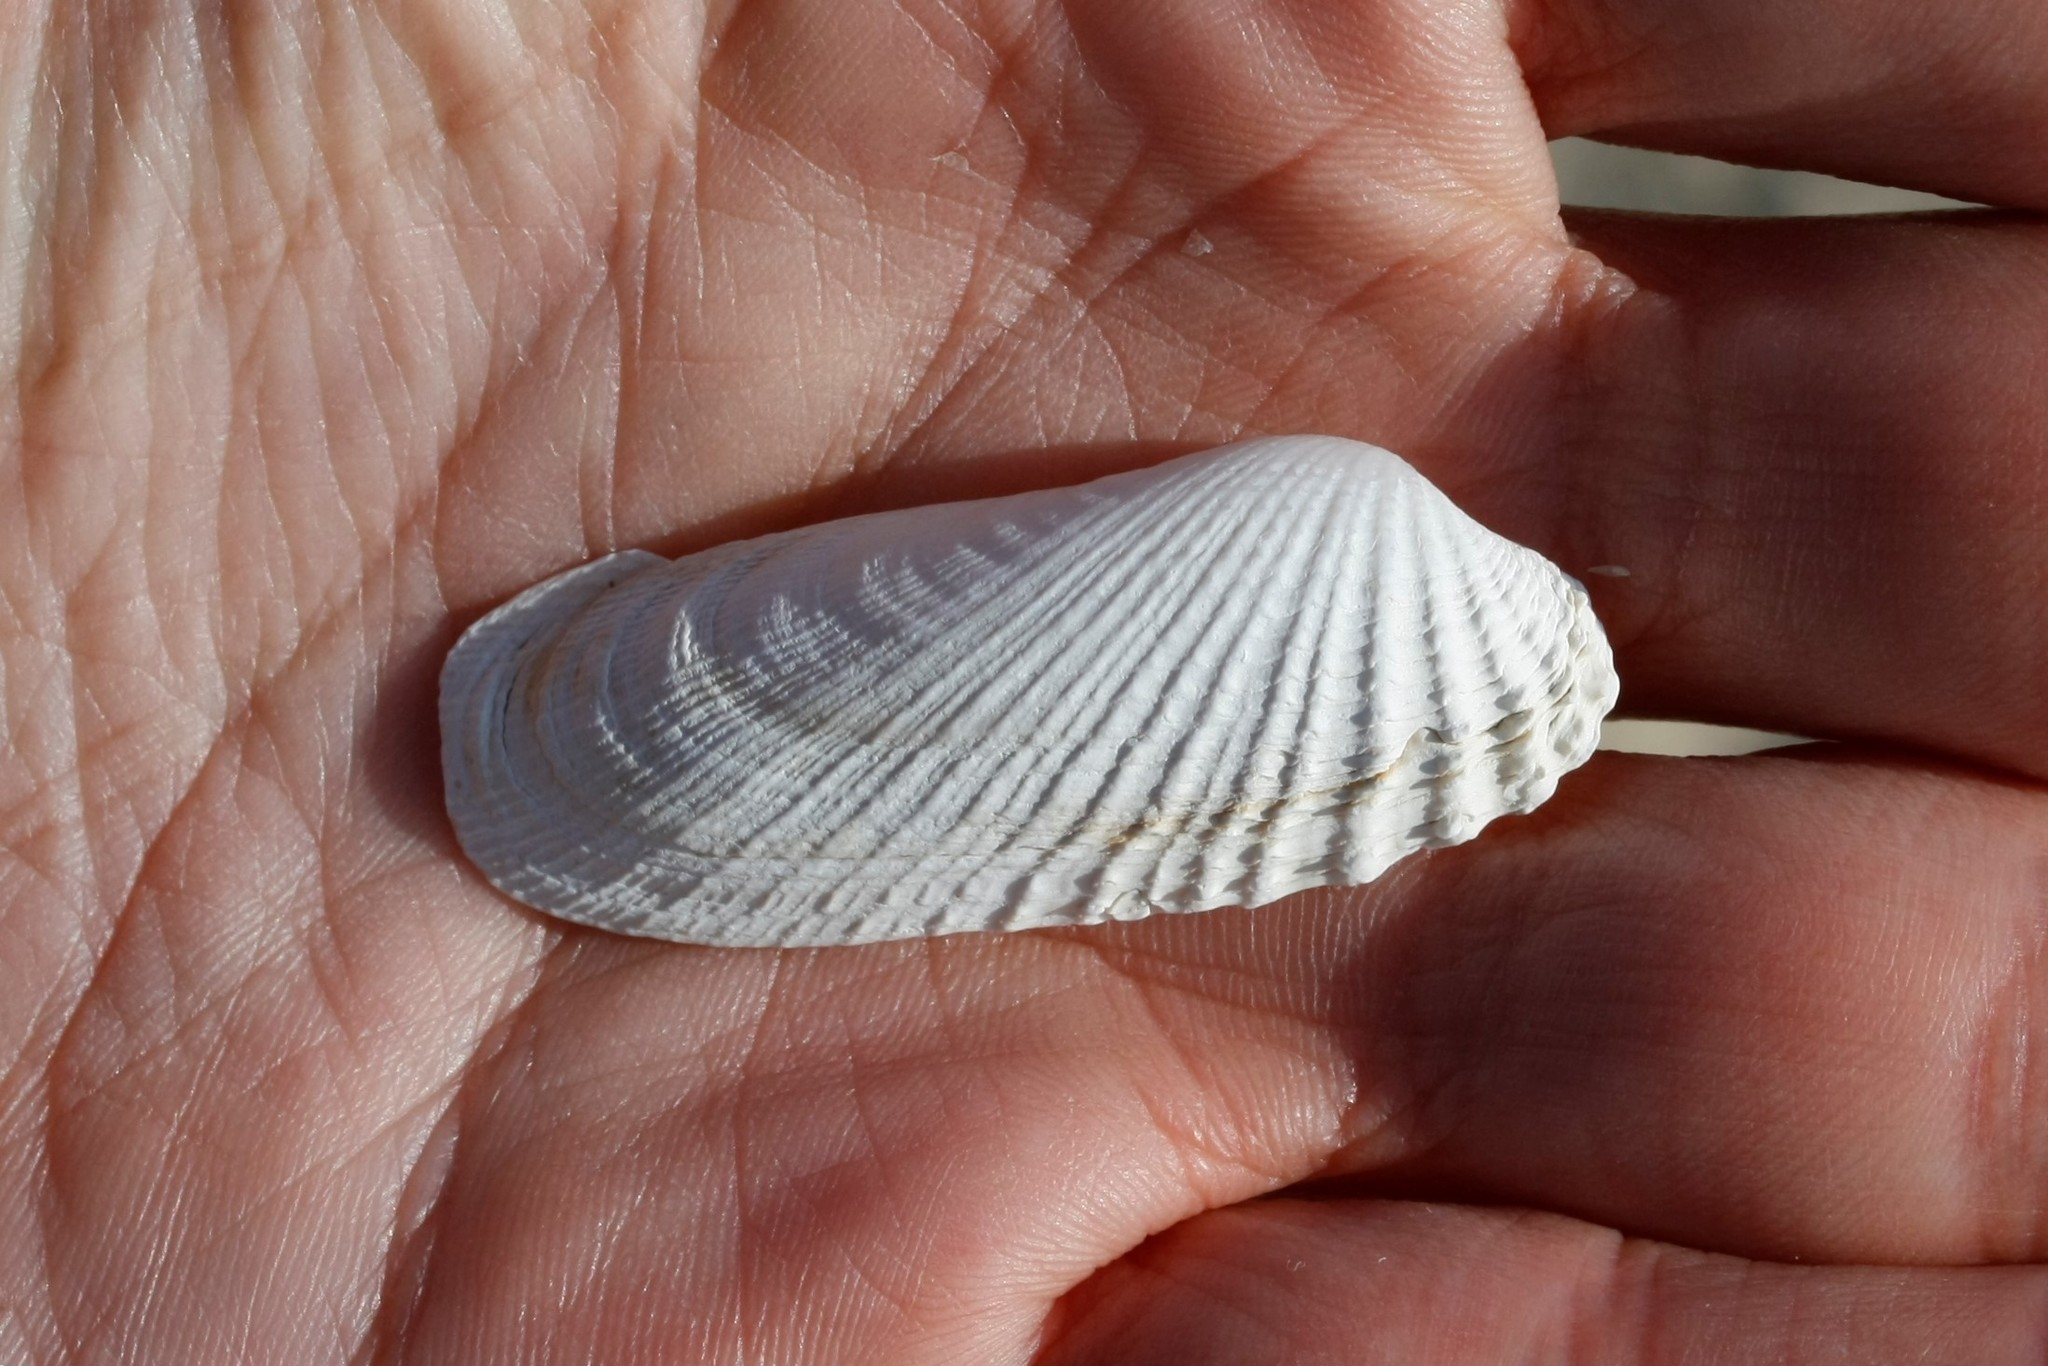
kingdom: Animalia
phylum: Mollusca
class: Bivalvia
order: Venerida
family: Veneridae
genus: Petricolaria
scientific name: Petricolaria pholadiformis
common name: American piddock
